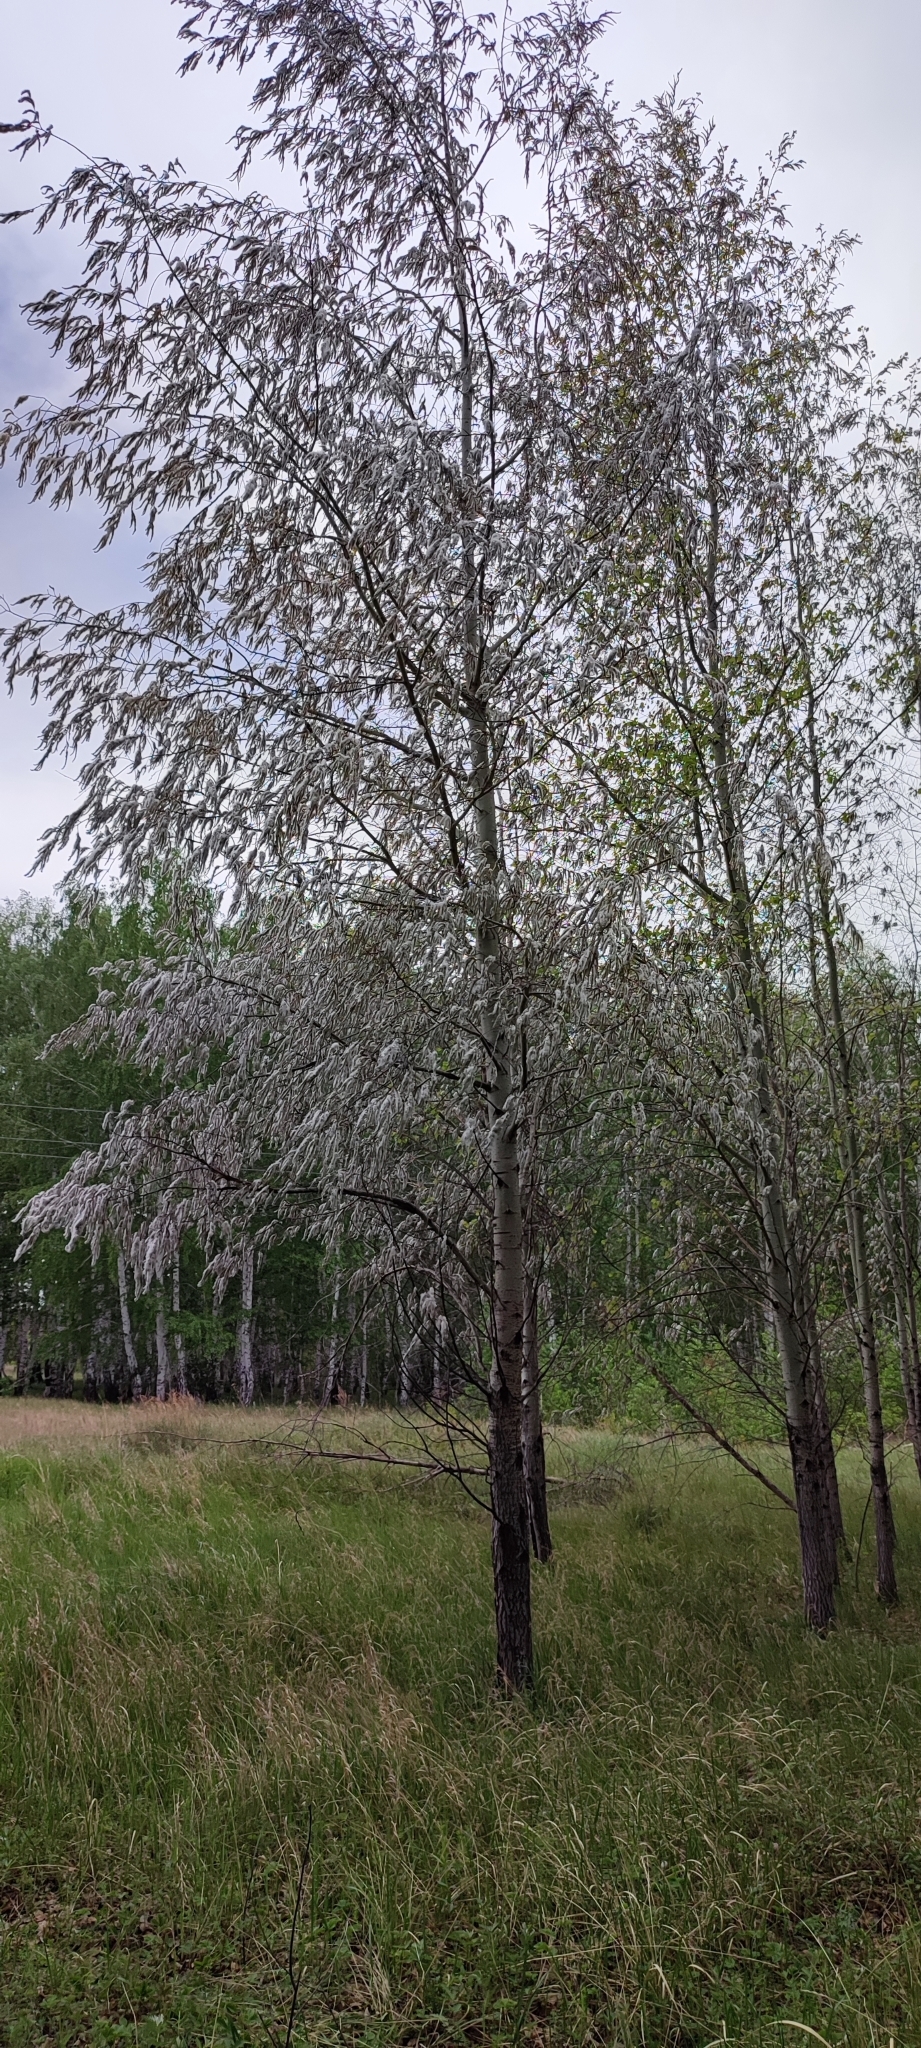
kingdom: Plantae
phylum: Tracheophyta
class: Magnoliopsida
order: Malpighiales
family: Salicaceae
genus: Populus
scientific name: Populus tremula
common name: European aspen
